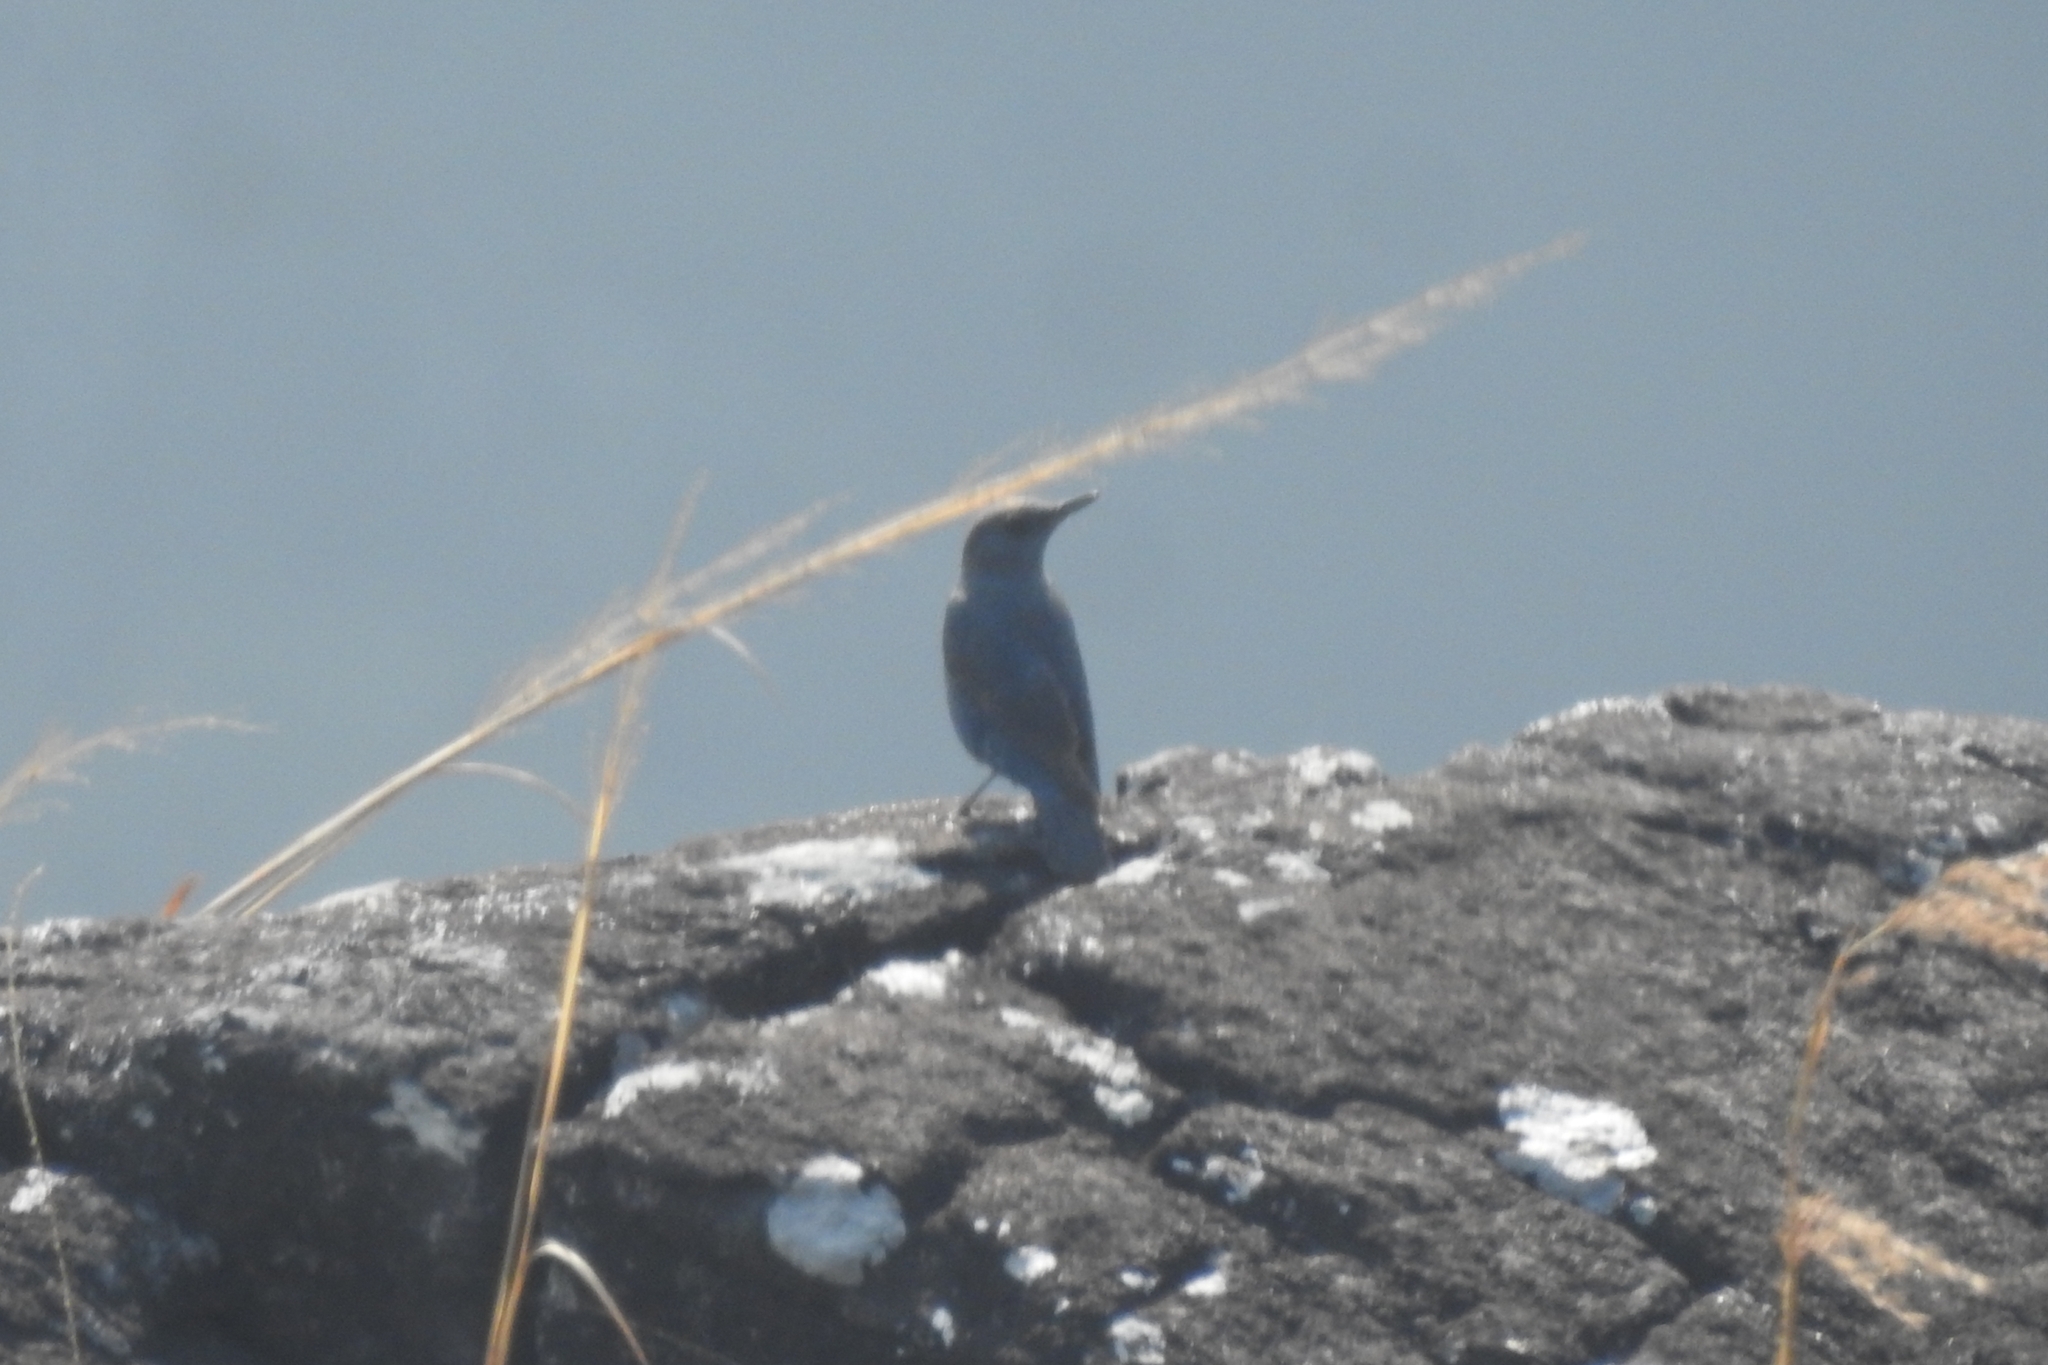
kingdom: Animalia
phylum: Chordata
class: Aves
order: Passeriformes
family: Muscicapidae
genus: Monticola
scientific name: Monticola solitarius
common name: Blue rock thrush
